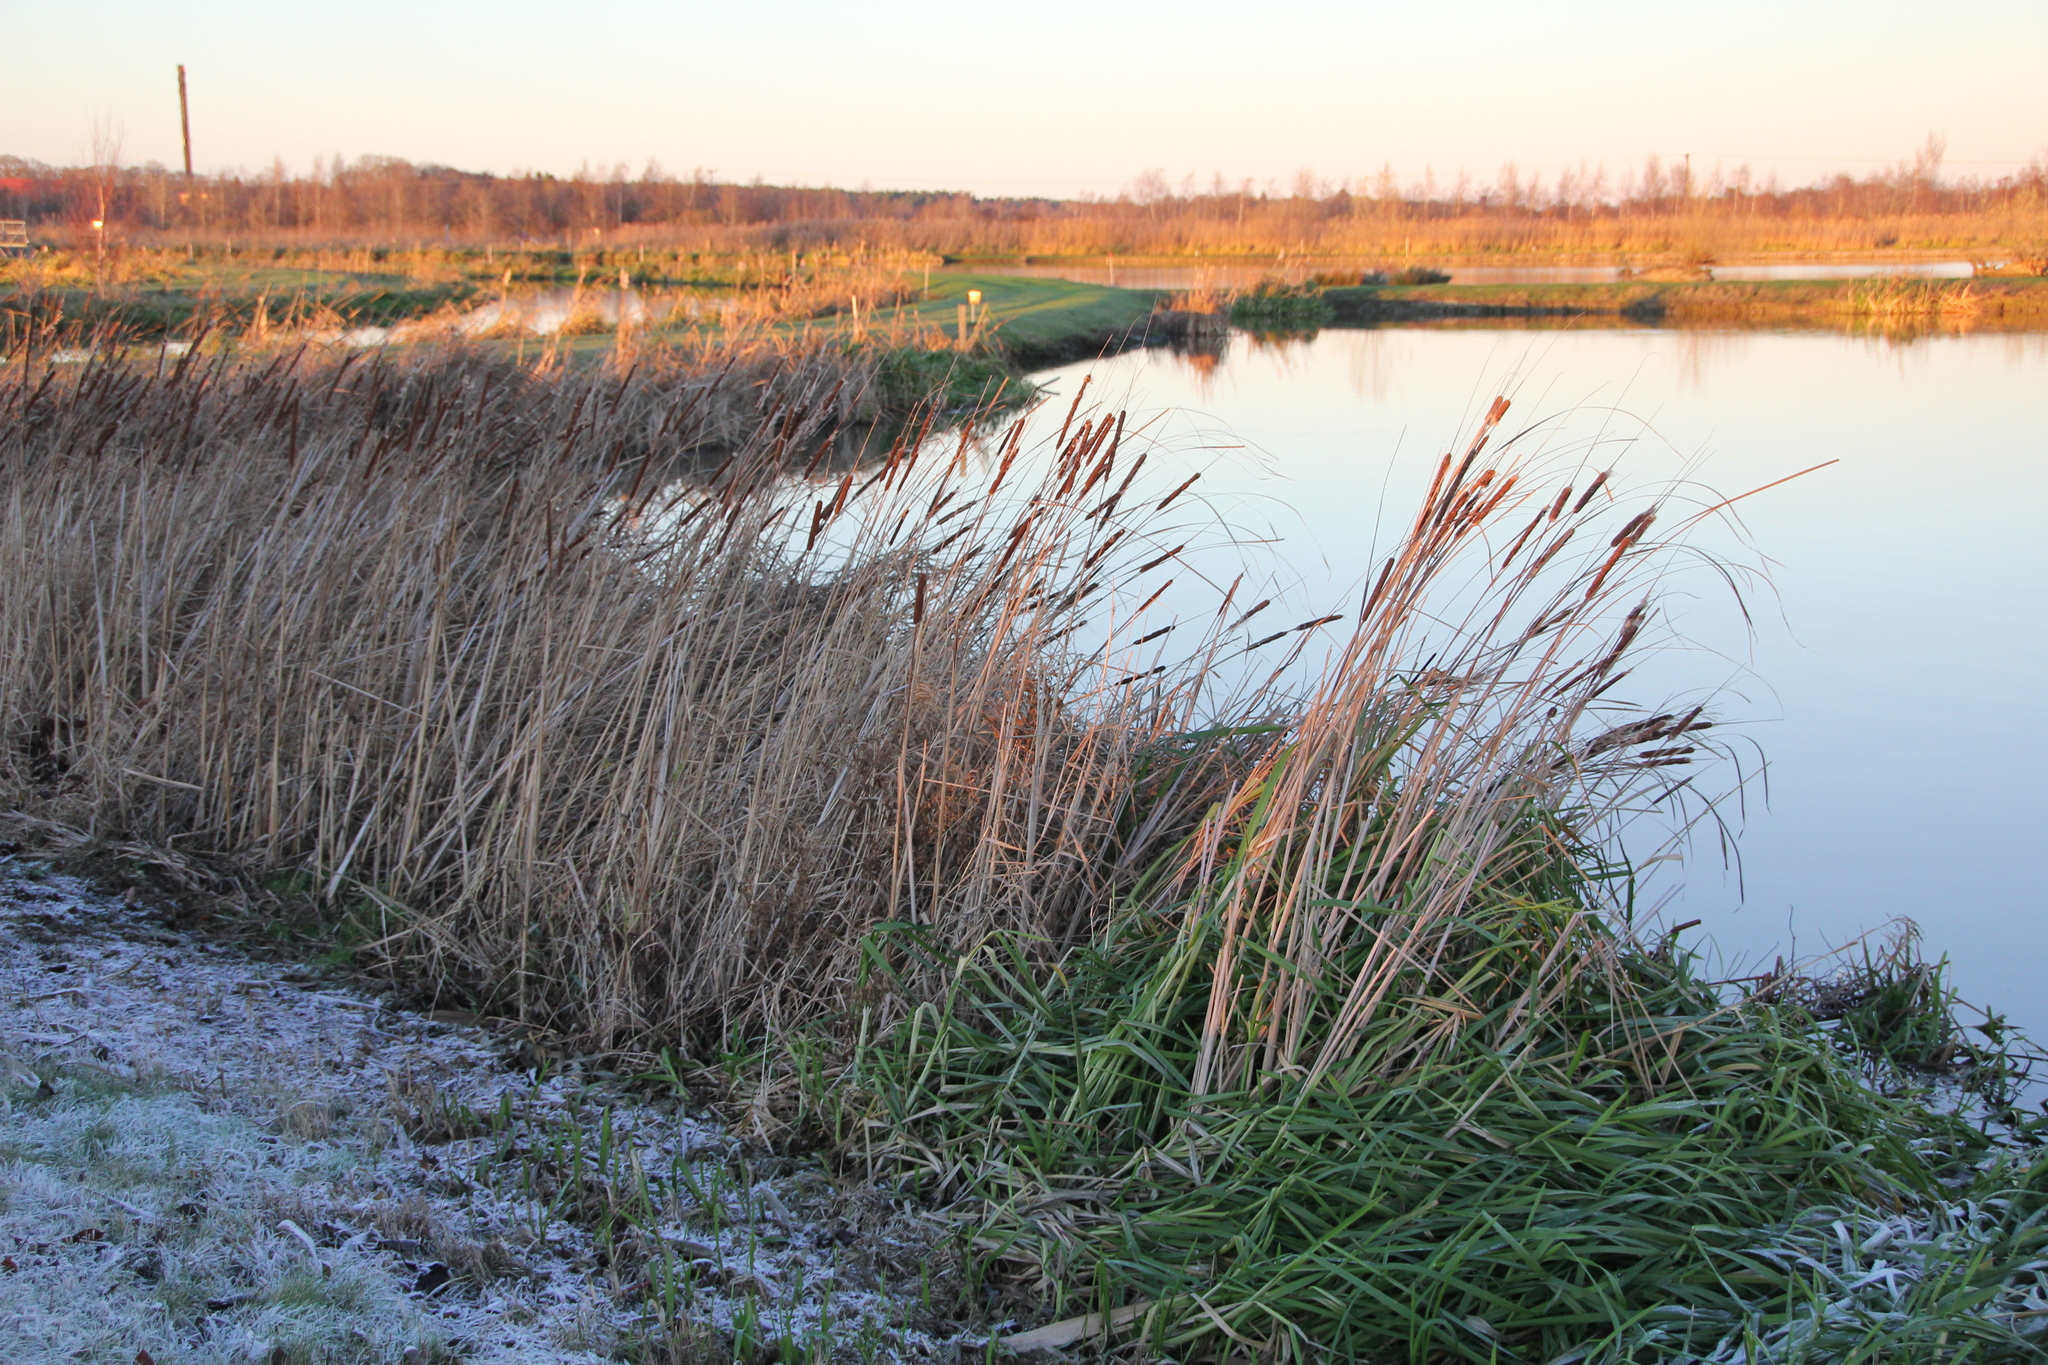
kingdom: Plantae
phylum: Tracheophyta
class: Liliopsida
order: Poales
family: Typhaceae
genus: Typha
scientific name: Typha angustifolia
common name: Lesser bulrush
